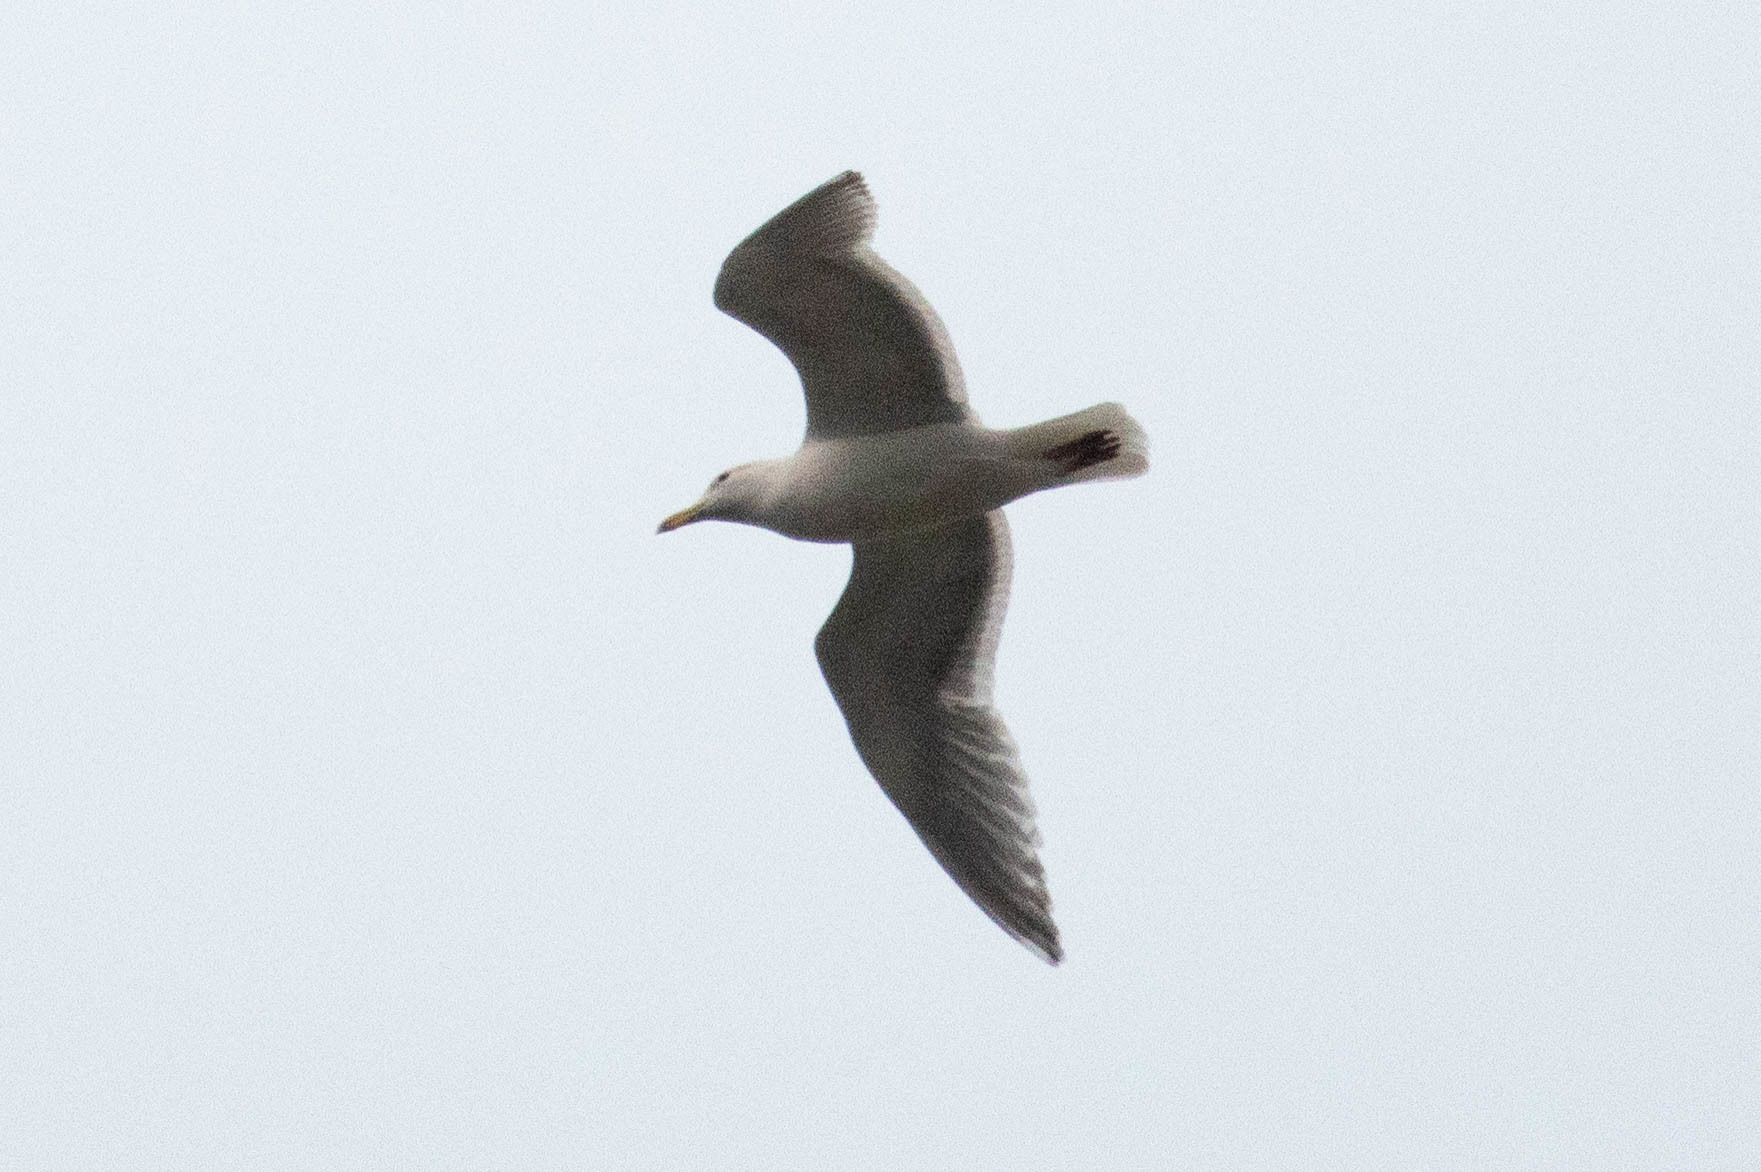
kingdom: Animalia
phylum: Chordata
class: Aves
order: Charadriiformes
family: Laridae
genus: Larus
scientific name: Larus
